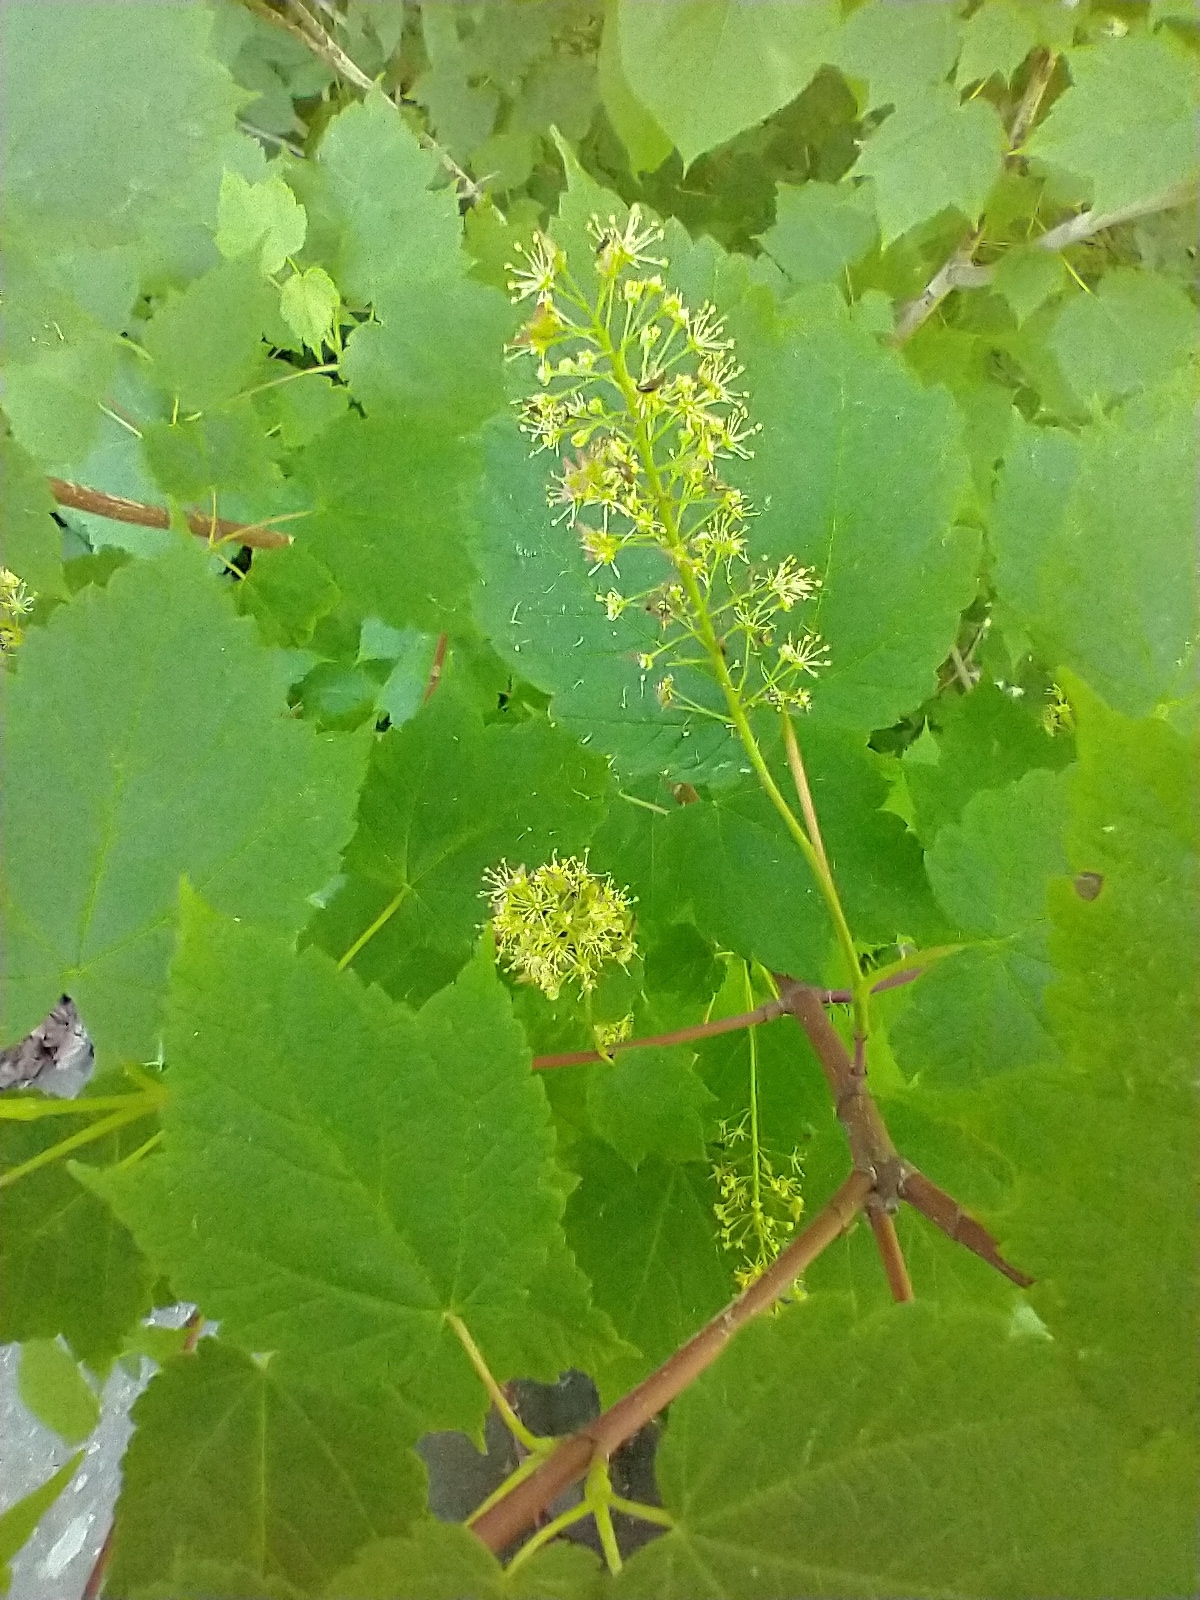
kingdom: Plantae
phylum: Tracheophyta
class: Magnoliopsida
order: Sapindales
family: Sapindaceae
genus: Acer
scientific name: Acer spicatum
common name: Mountain maple
